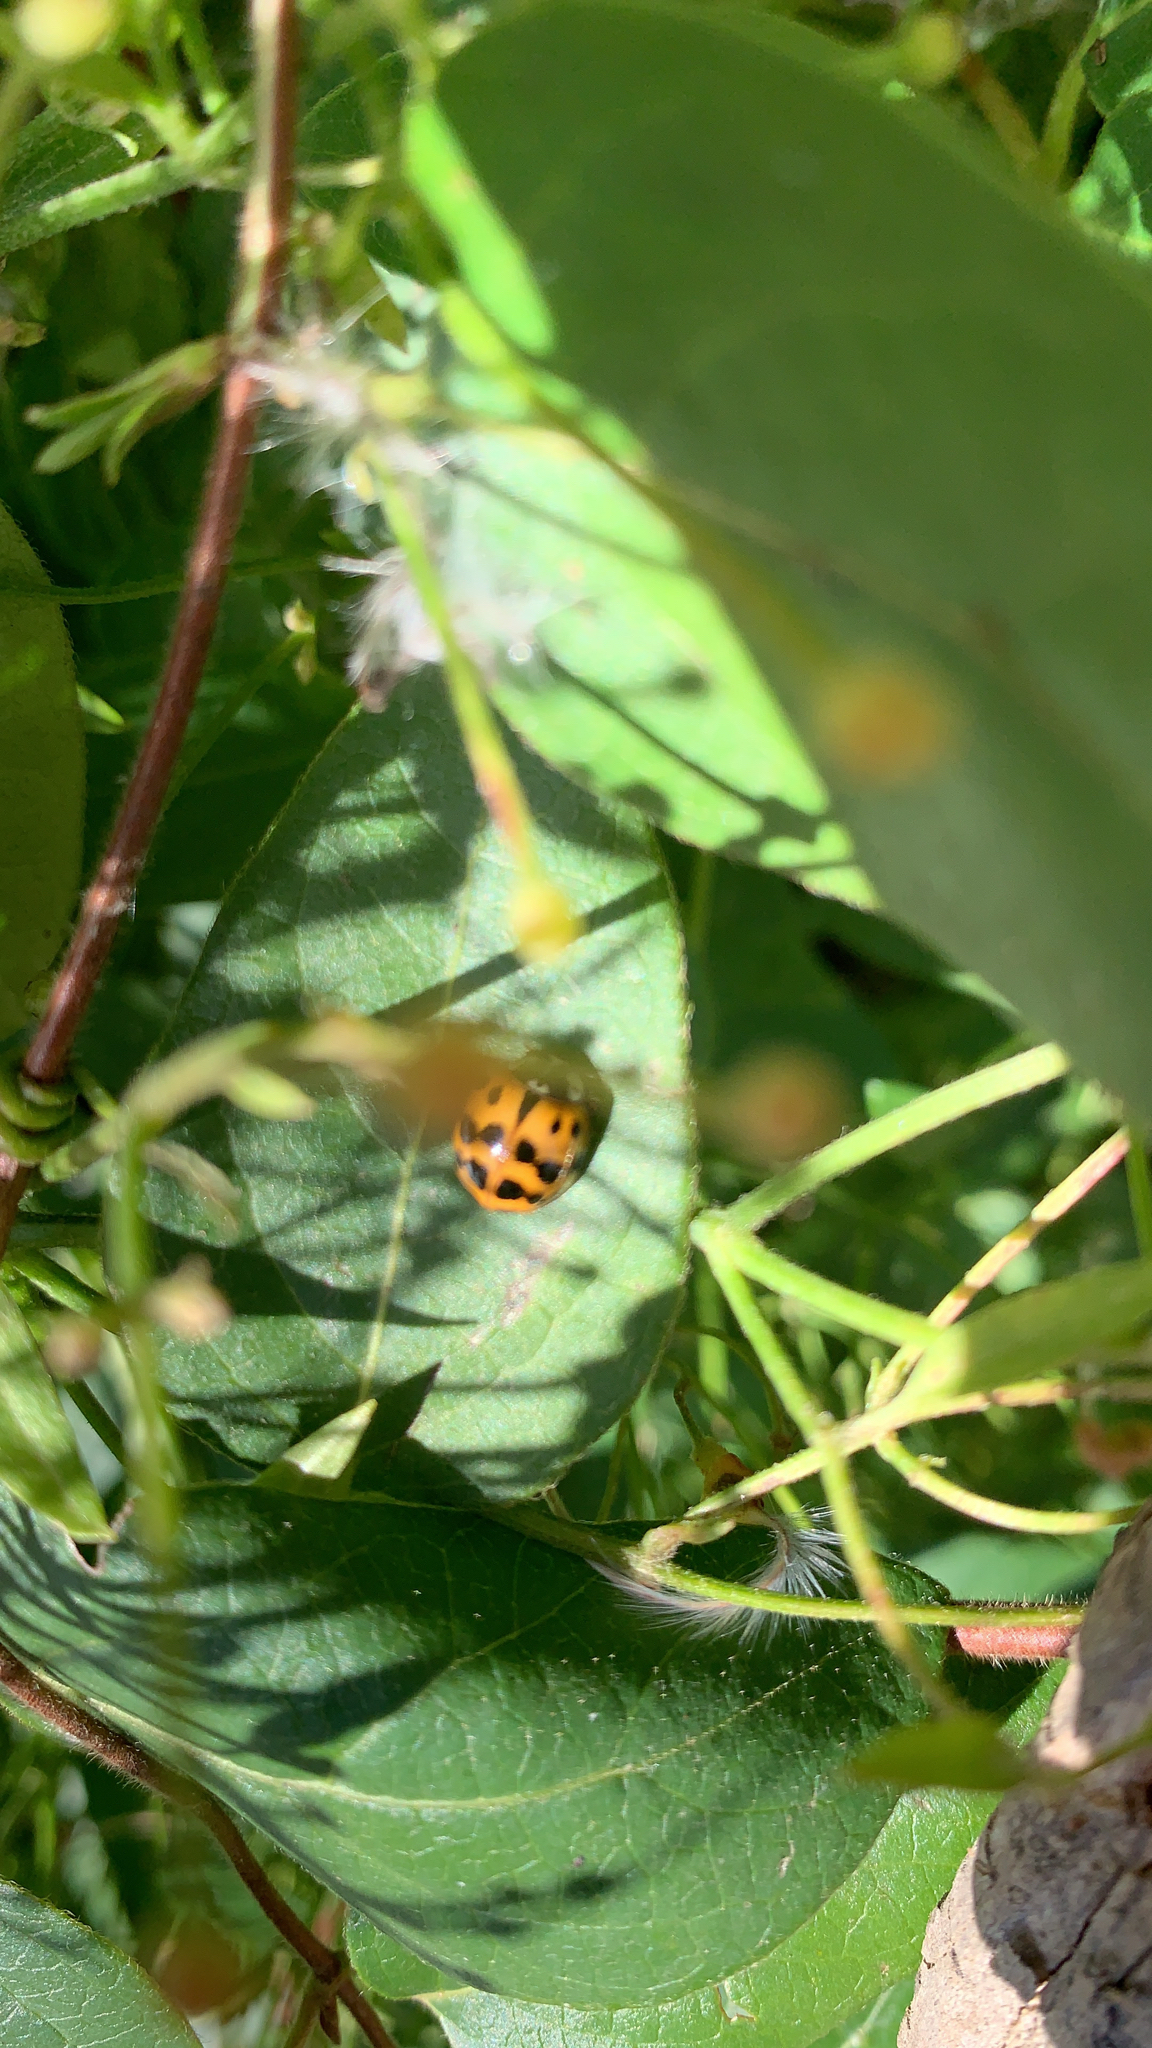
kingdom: Animalia
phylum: Arthropoda
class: Insecta
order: Coleoptera
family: Coccinellidae
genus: Harmonia
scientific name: Harmonia axyridis
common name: Harlequin ladybird
